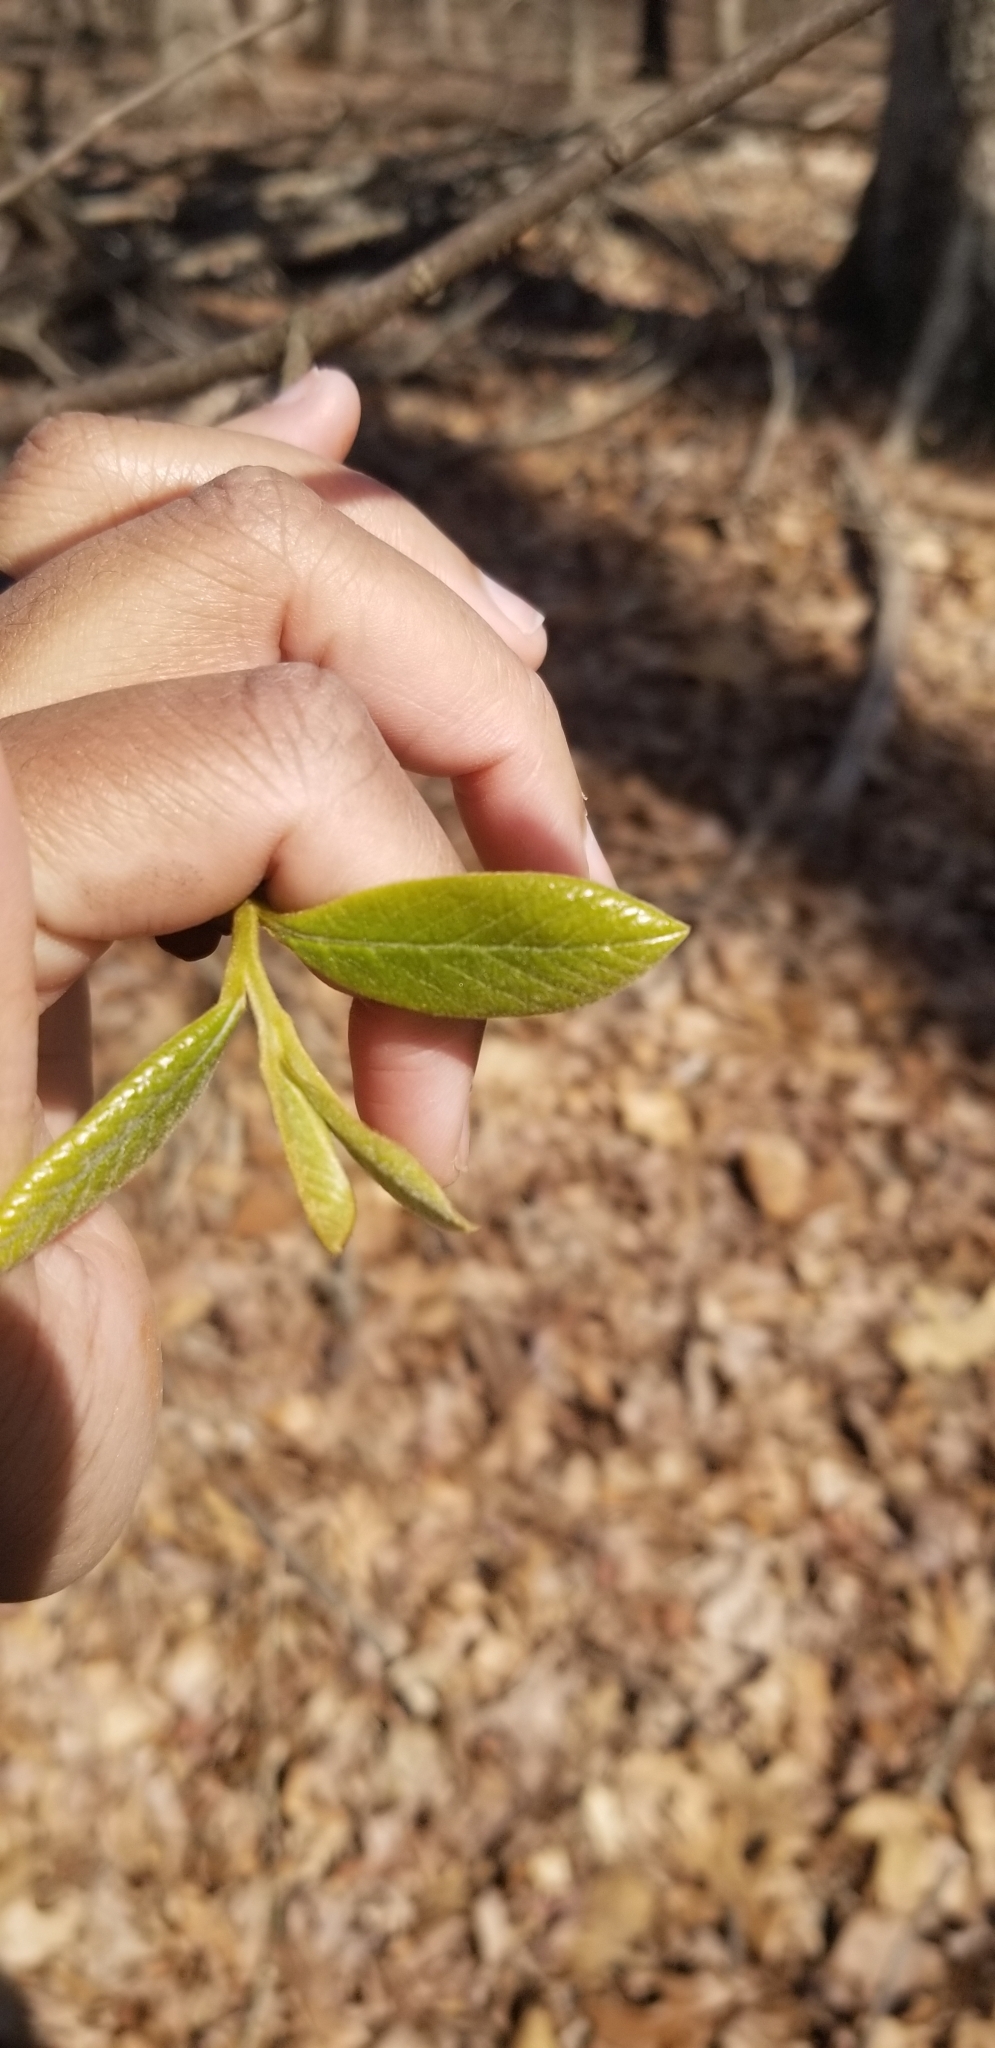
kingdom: Plantae
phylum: Tracheophyta
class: Magnoliopsida
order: Magnoliales
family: Annonaceae
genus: Asimina
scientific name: Asimina parviflora
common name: Dwarf pawpaw
